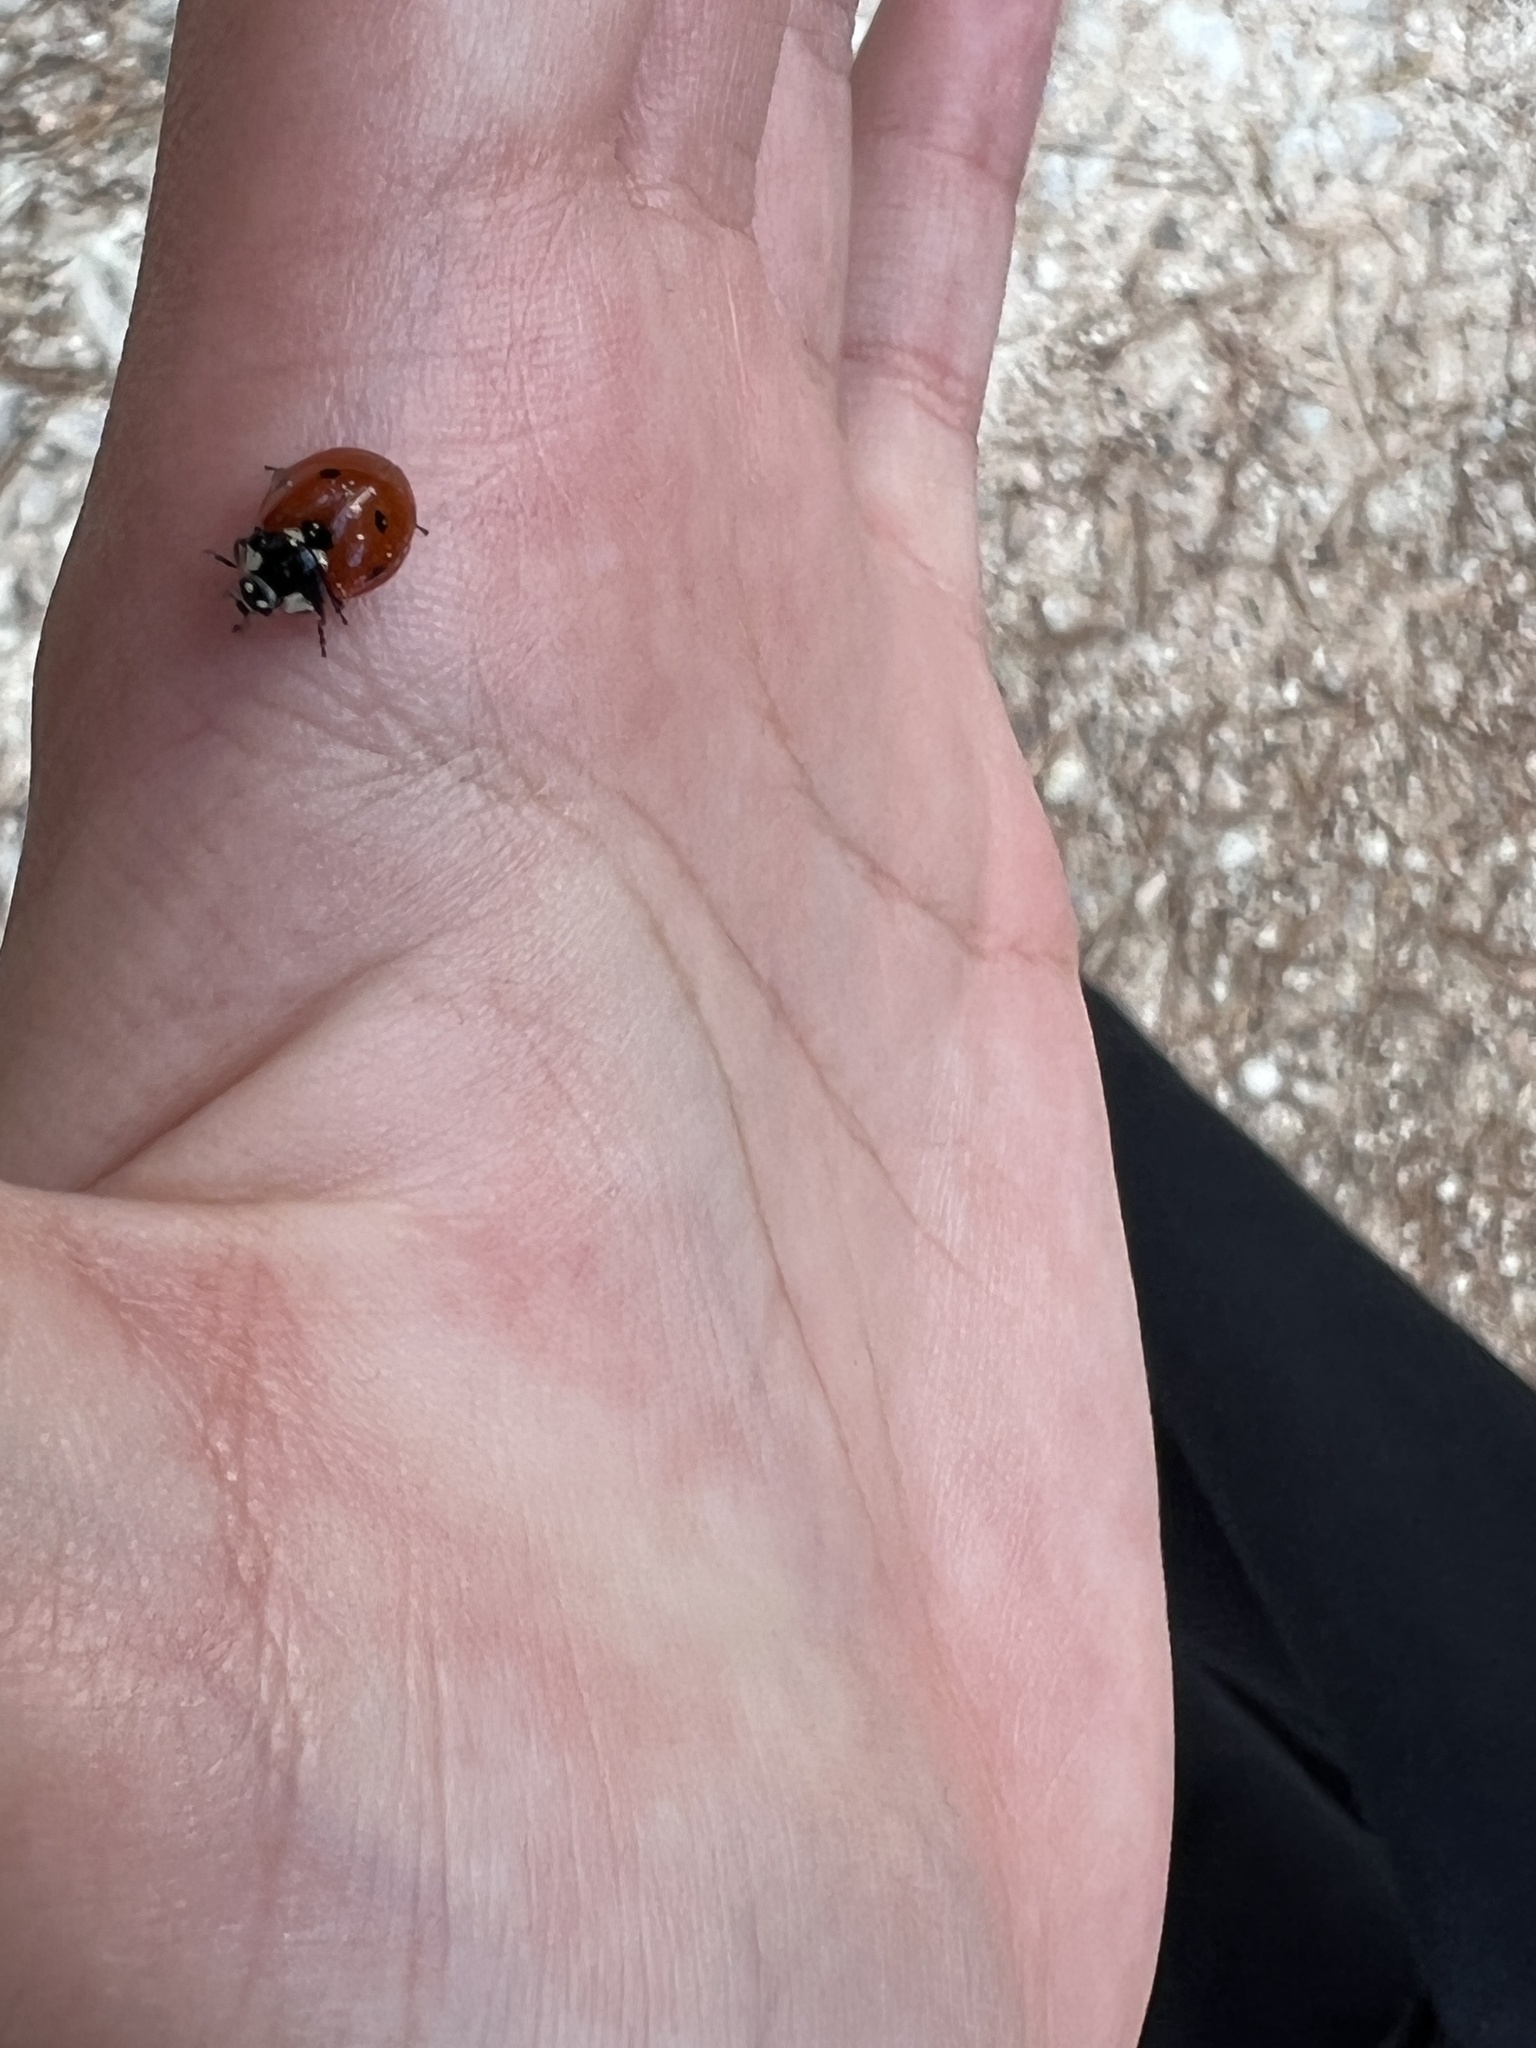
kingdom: Animalia
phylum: Arthropoda
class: Insecta
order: Coleoptera
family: Coccinellidae
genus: Coccinella
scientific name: Coccinella septempunctata
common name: Sevenspotted lady beetle
